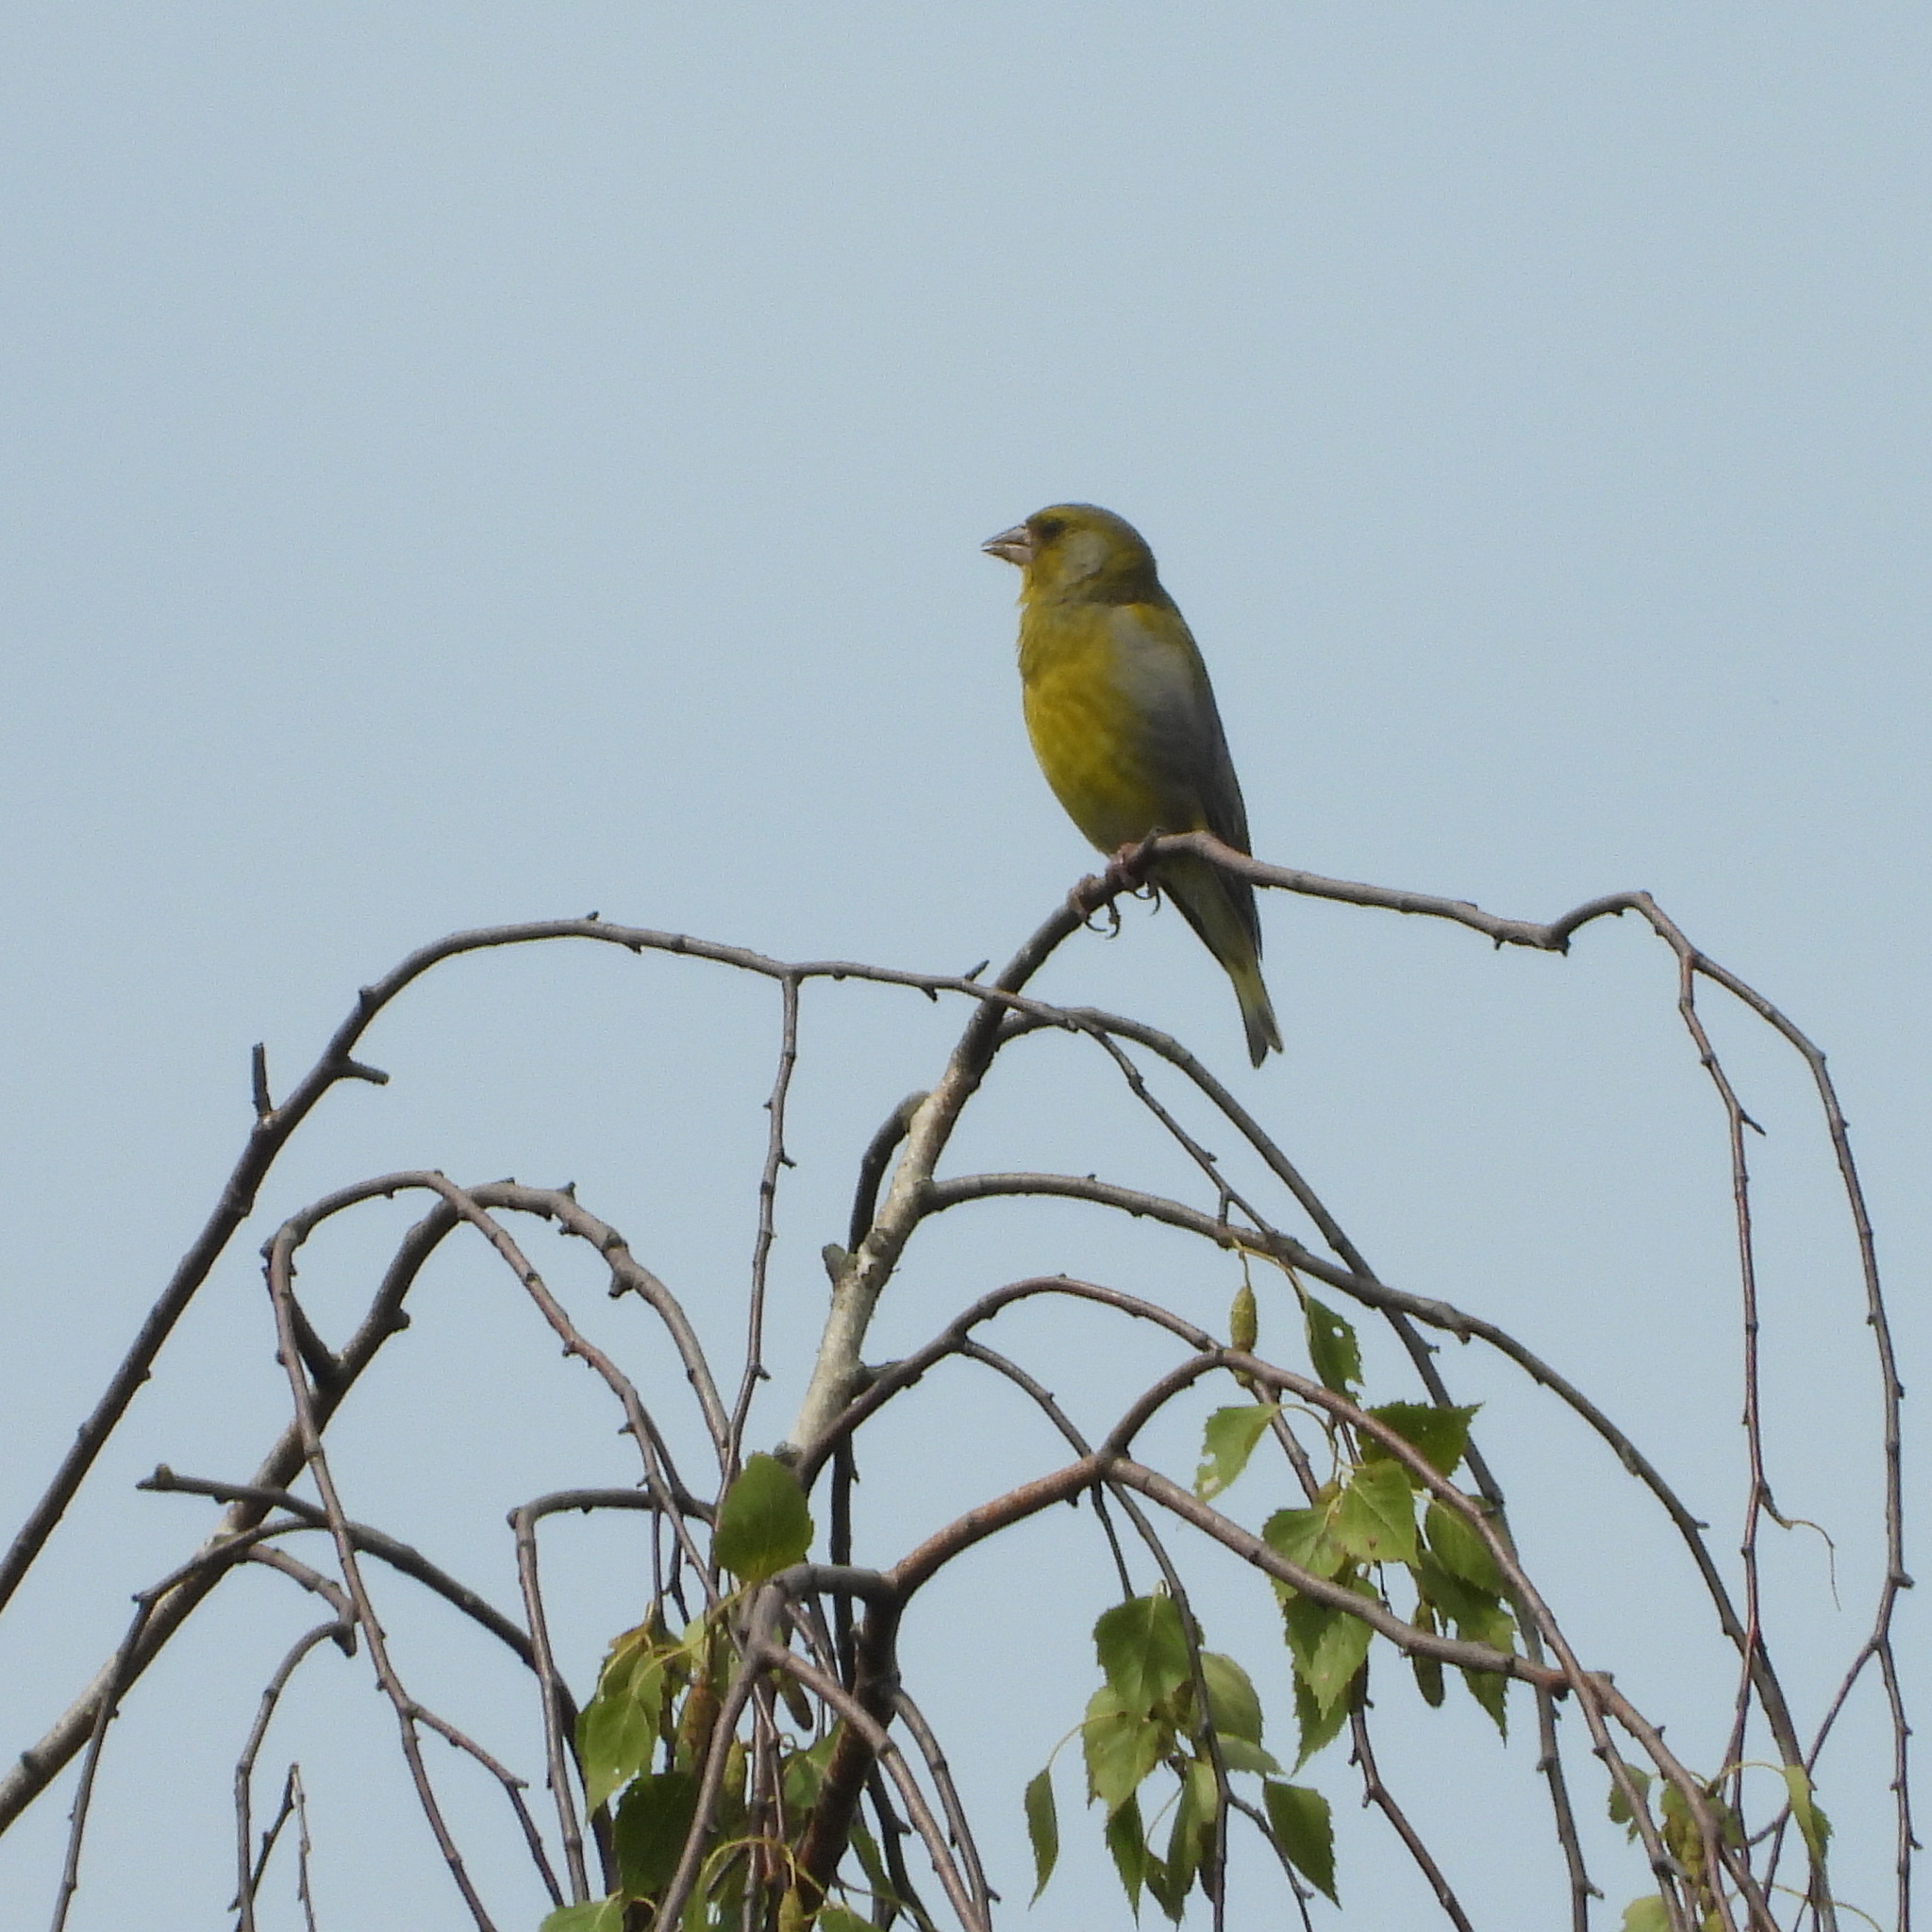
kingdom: Plantae
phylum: Tracheophyta
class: Liliopsida
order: Poales
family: Poaceae
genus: Chloris
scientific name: Chloris chloris
